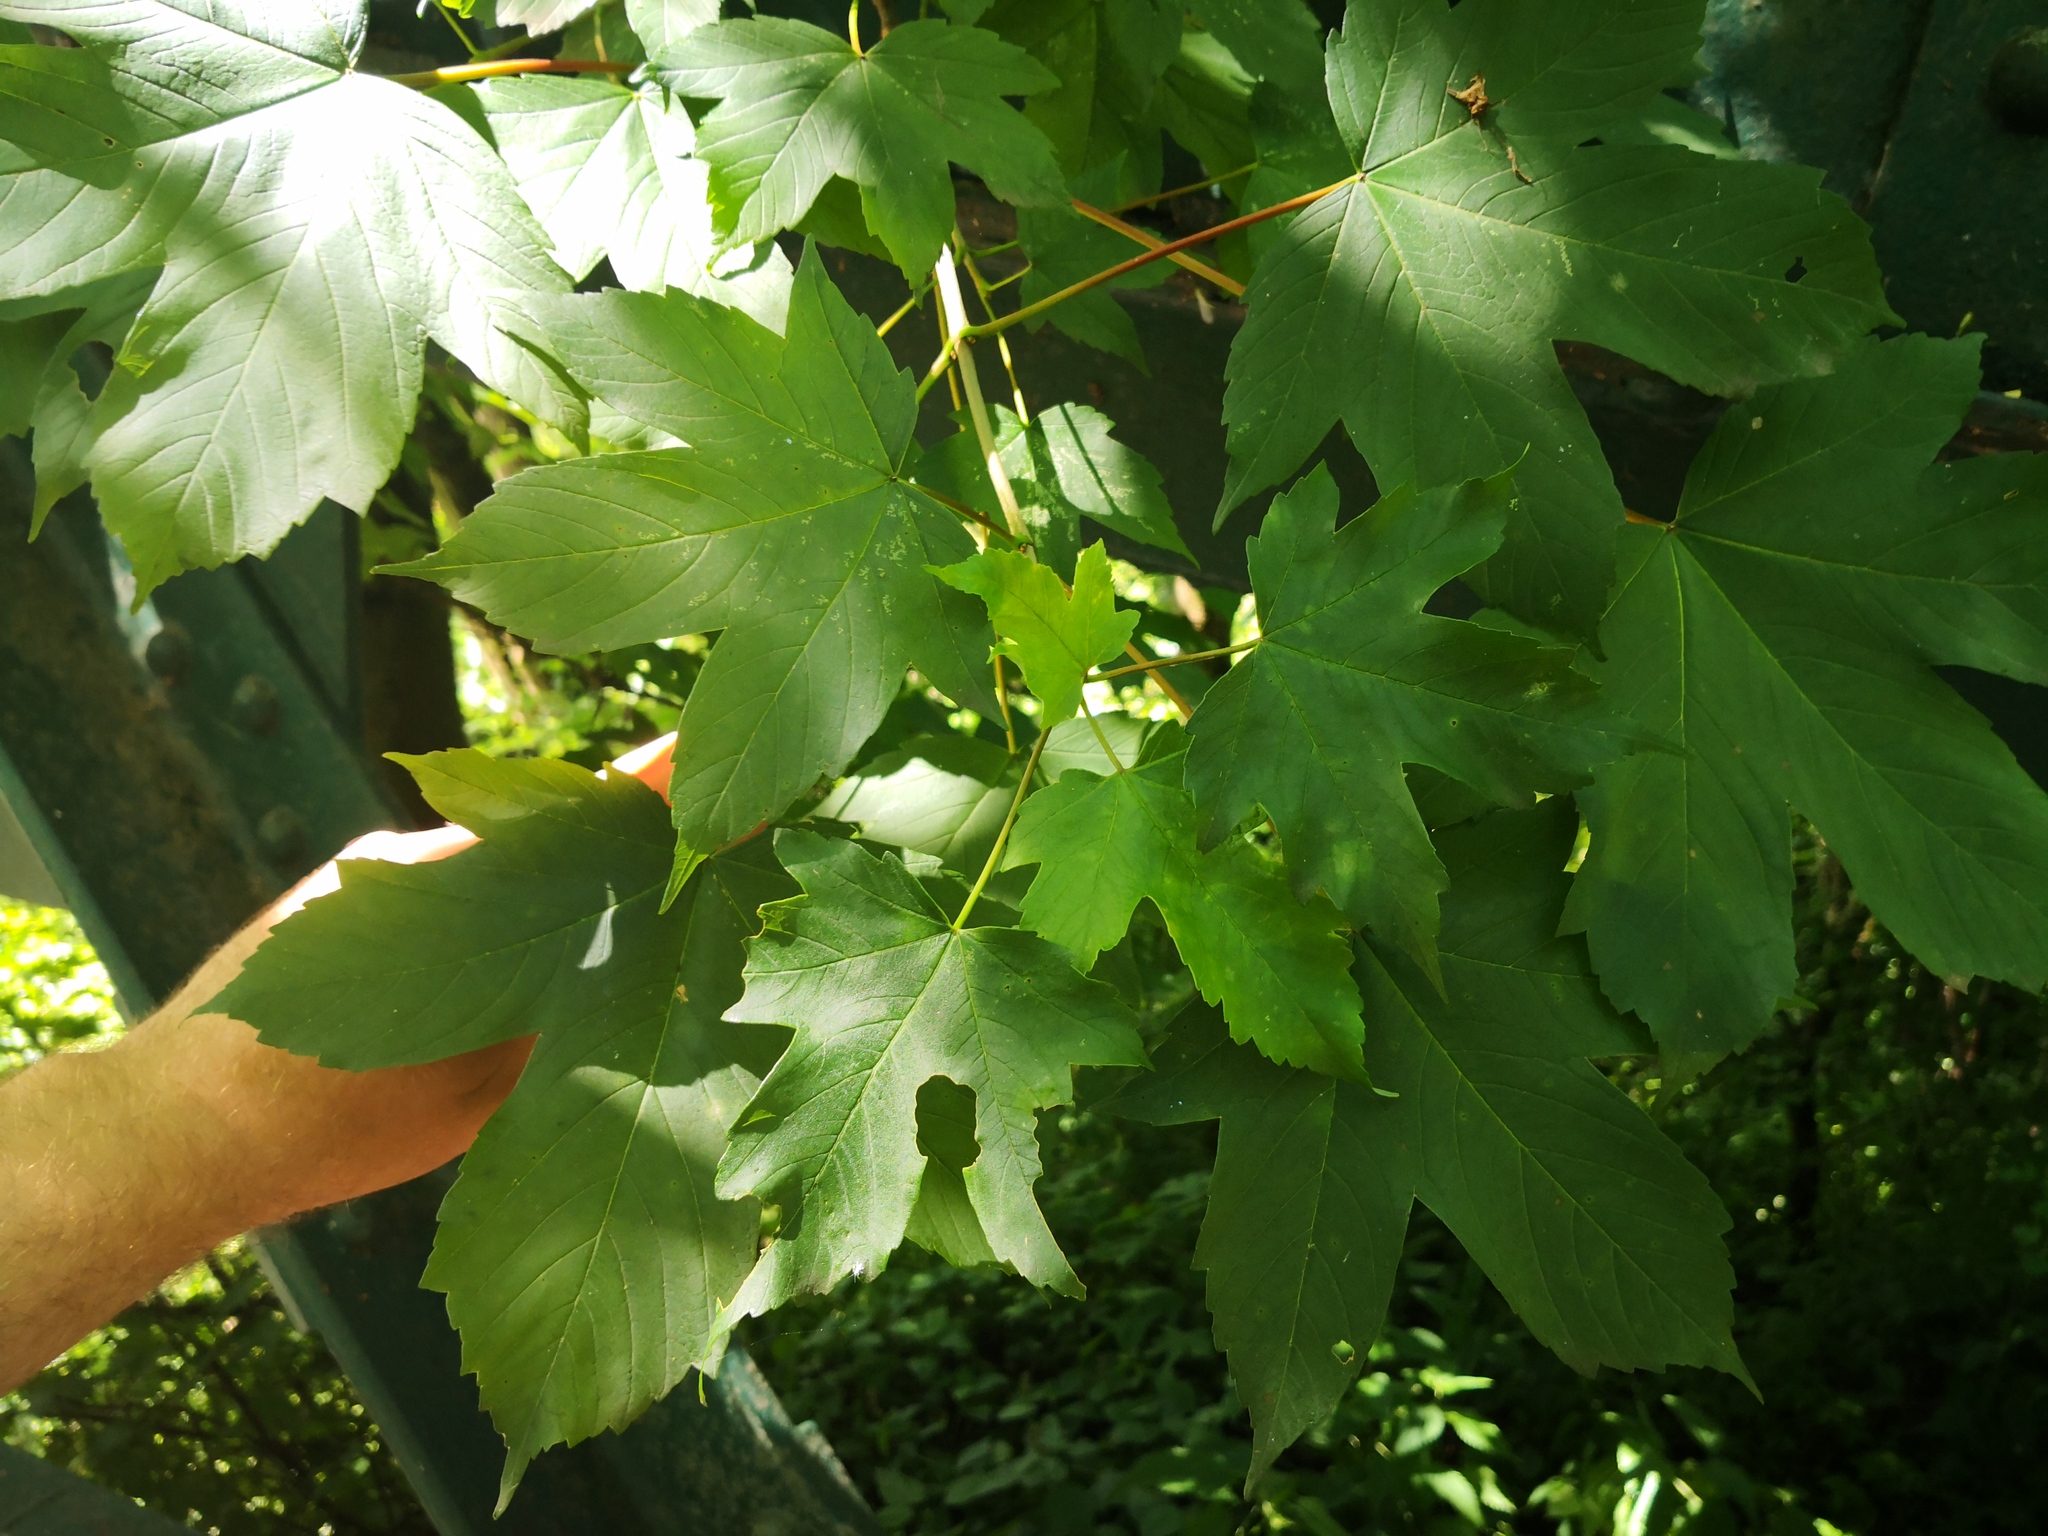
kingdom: Plantae
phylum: Tracheophyta
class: Magnoliopsida
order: Sapindales
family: Sapindaceae
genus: Acer
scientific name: Acer pseudoplatanus
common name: Sycamore
